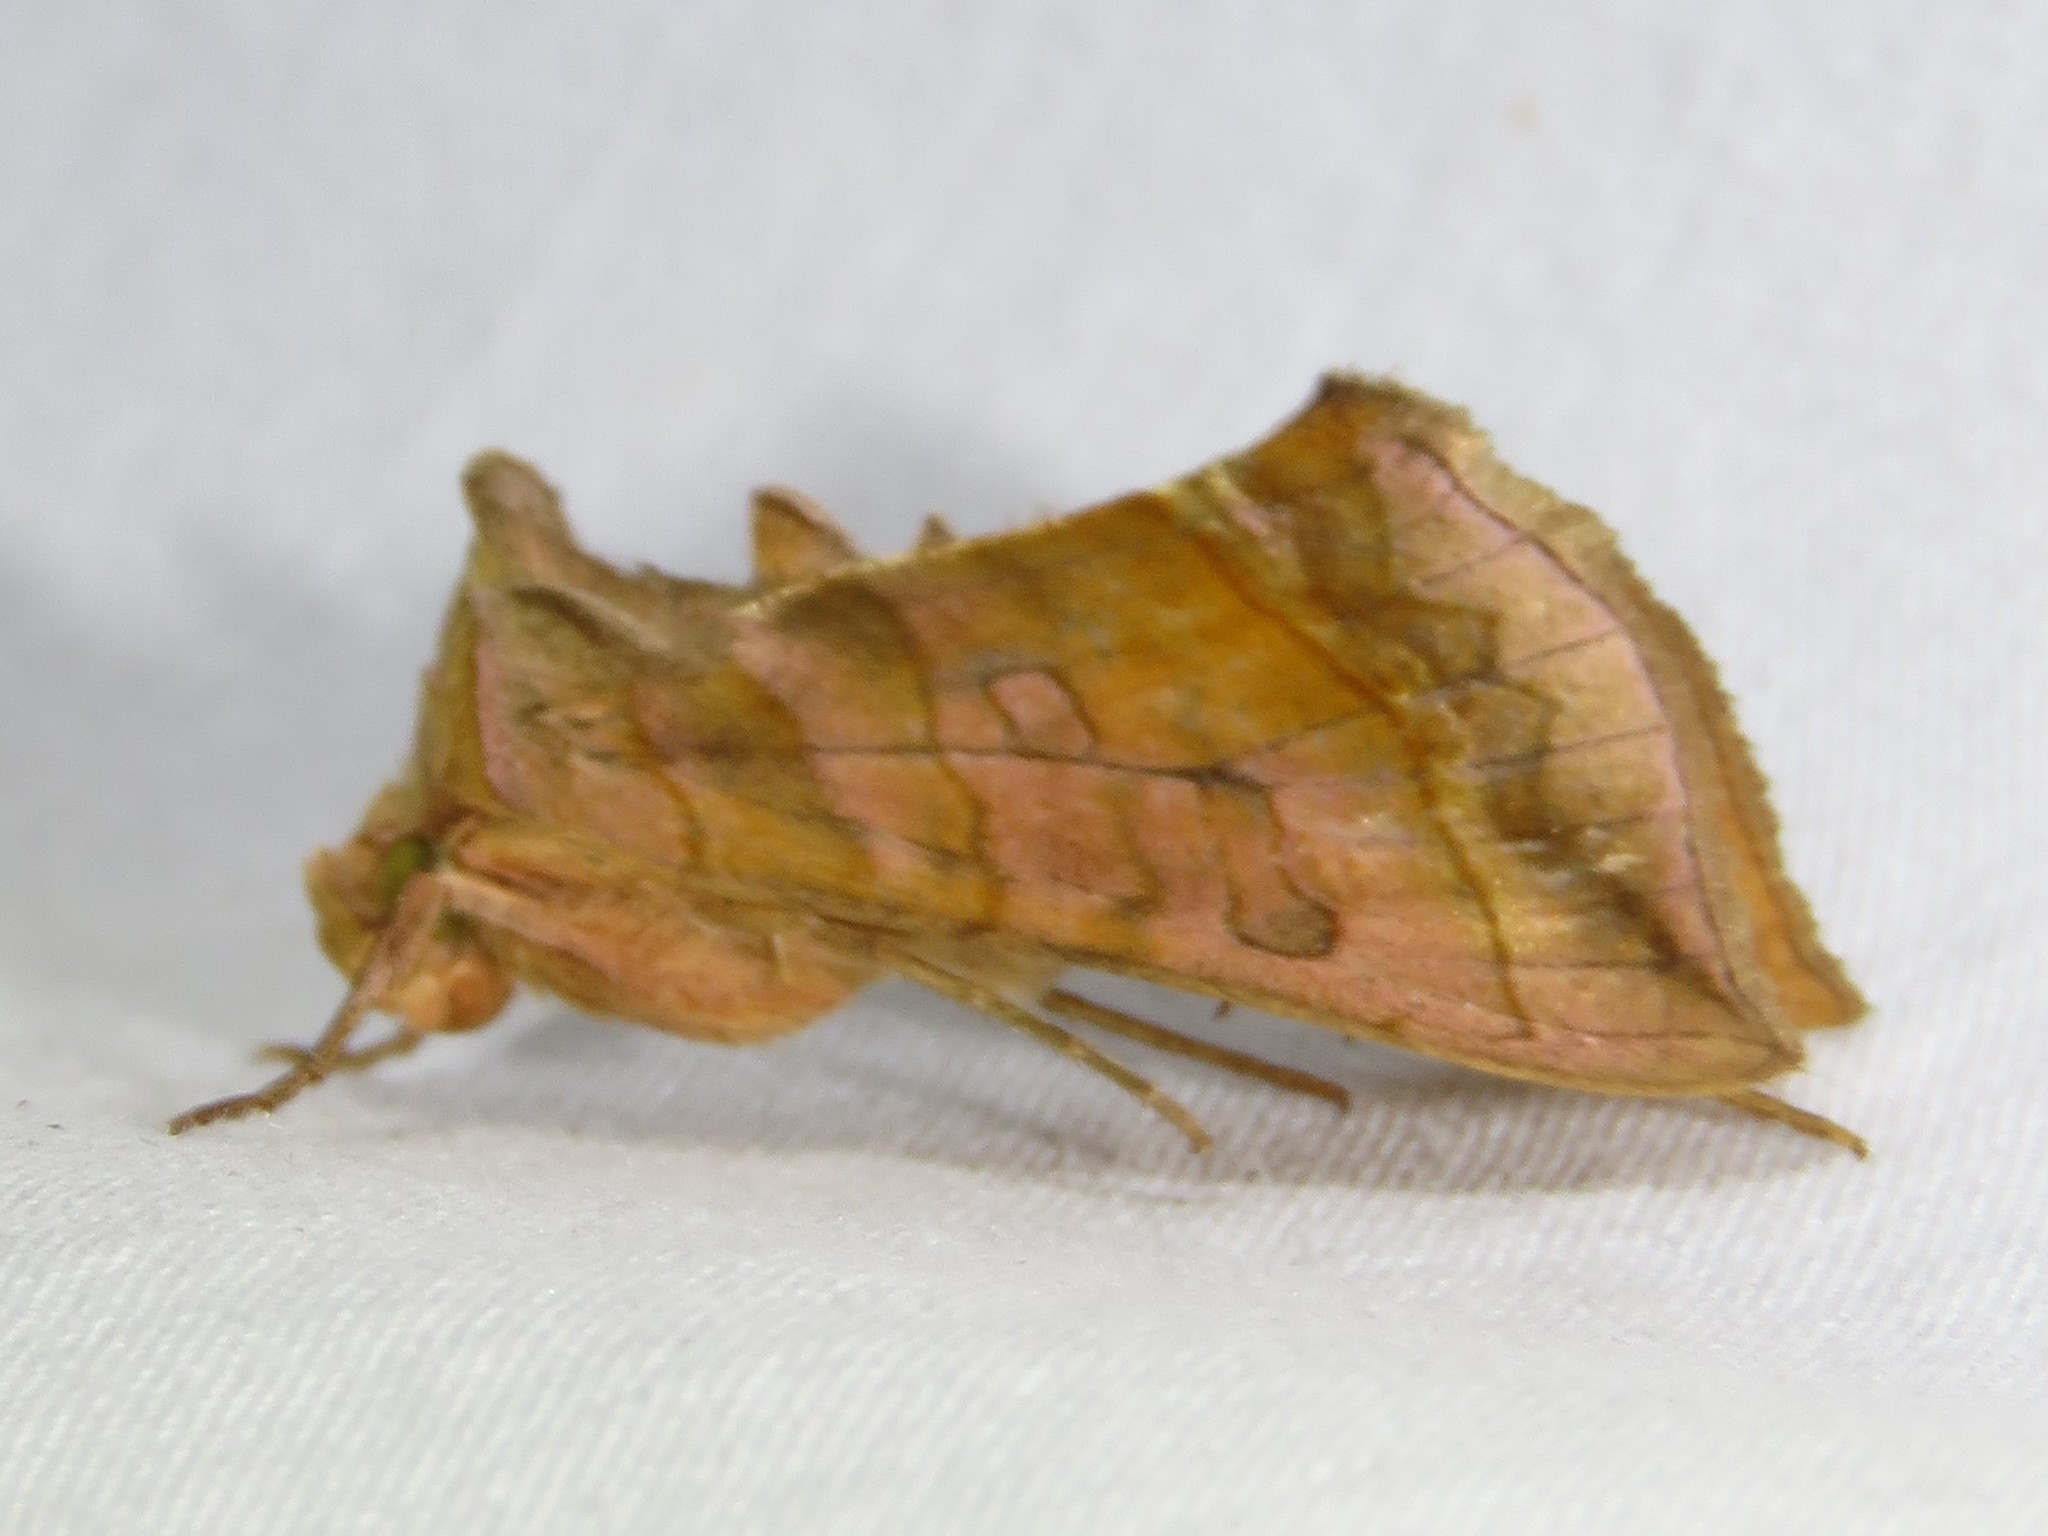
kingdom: Animalia
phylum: Arthropoda
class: Insecta
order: Lepidoptera
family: Noctuidae
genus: Diachrysia
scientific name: Diachrysia aereoides
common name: Dark-spotted looper moth
